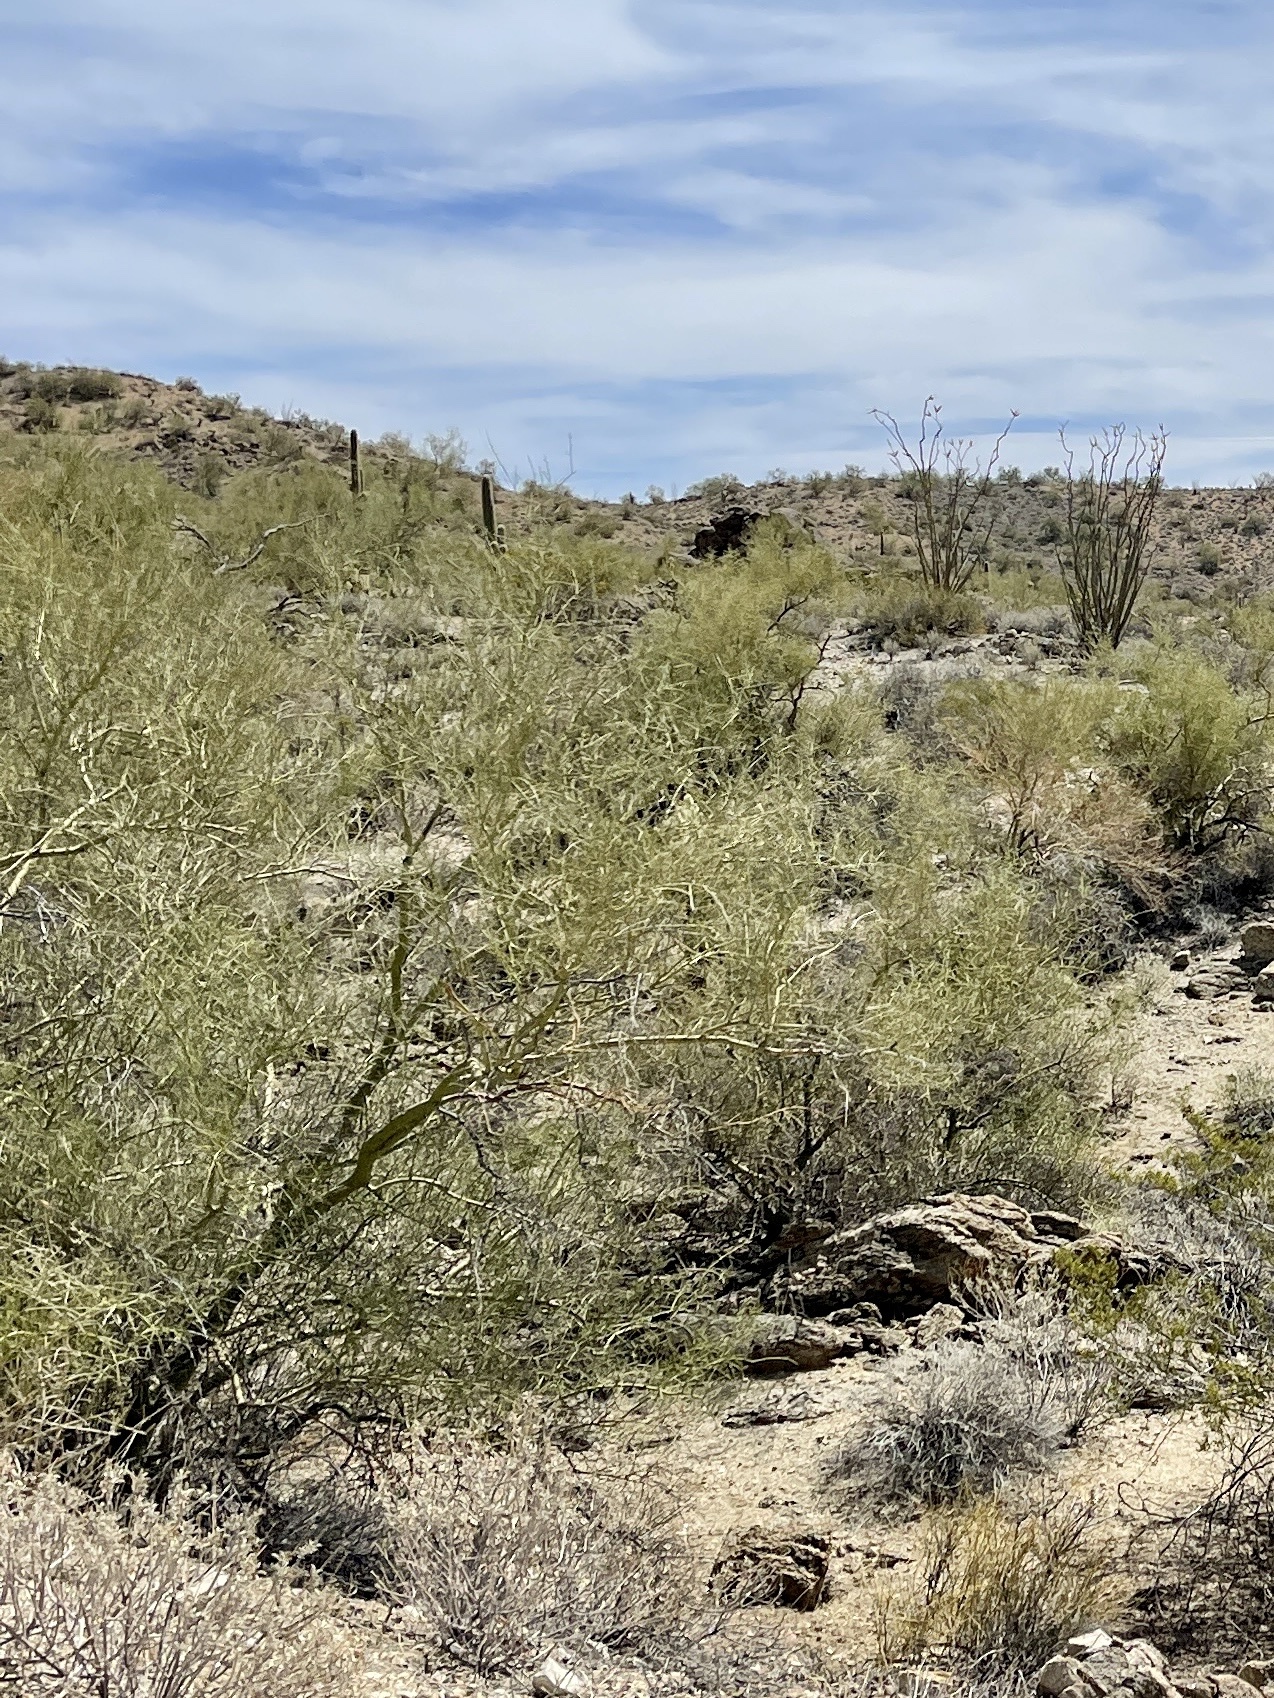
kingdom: Plantae
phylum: Tracheophyta
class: Magnoliopsida
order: Fabales
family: Fabaceae
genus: Parkinsonia
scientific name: Parkinsonia microphylla
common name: Yellow paloverde
